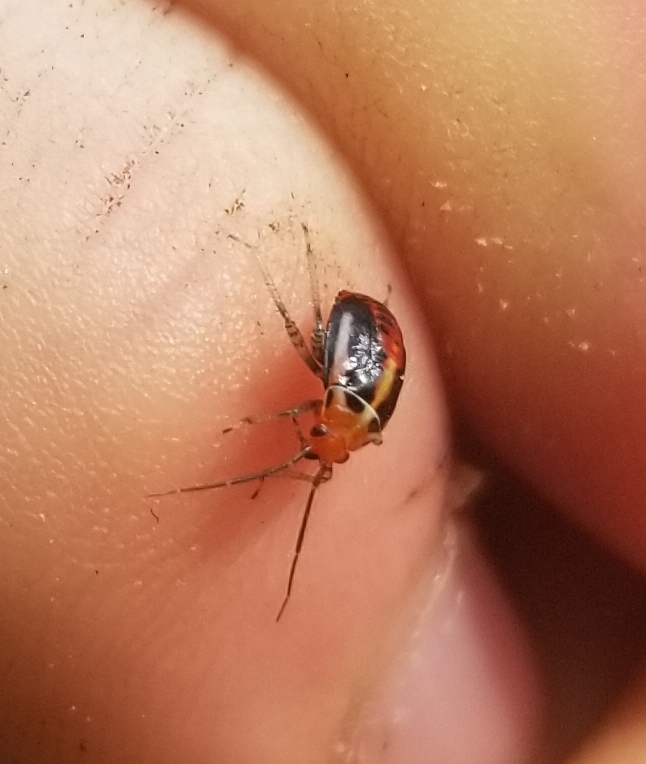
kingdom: Animalia
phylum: Arthropoda
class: Insecta
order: Hemiptera
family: Miridae
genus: Poecilocapsus
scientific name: Poecilocapsus lineatus
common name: Four-lined plant bug
